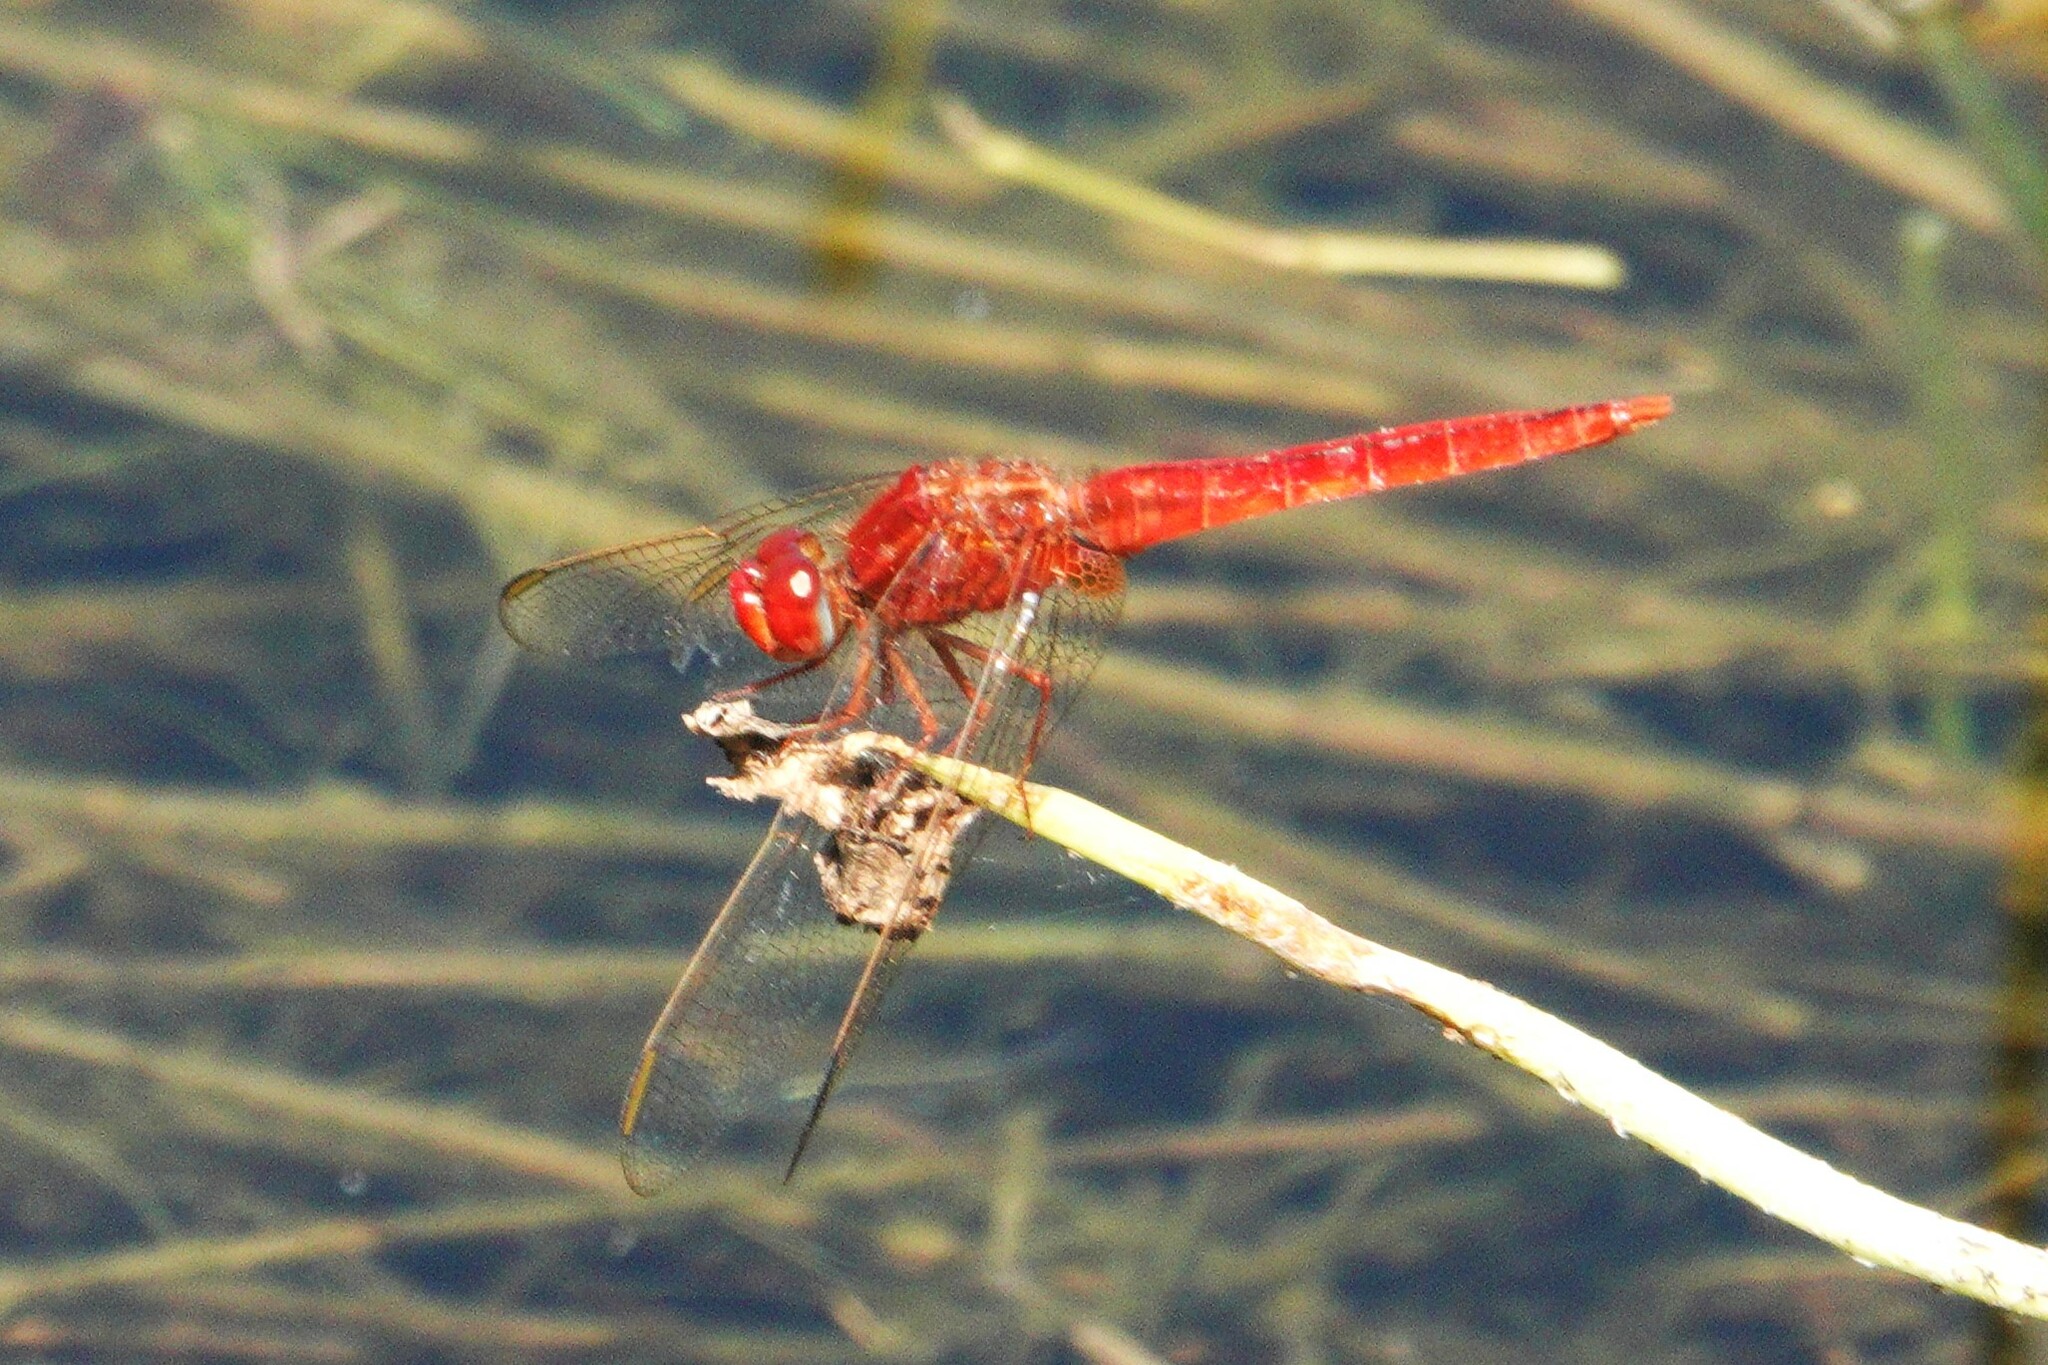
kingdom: Animalia
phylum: Arthropoda
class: Insecta
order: Odonata
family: Libellulidae
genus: Crocothemis
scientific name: Crocothemis servilia
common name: Scarlet skimmer
